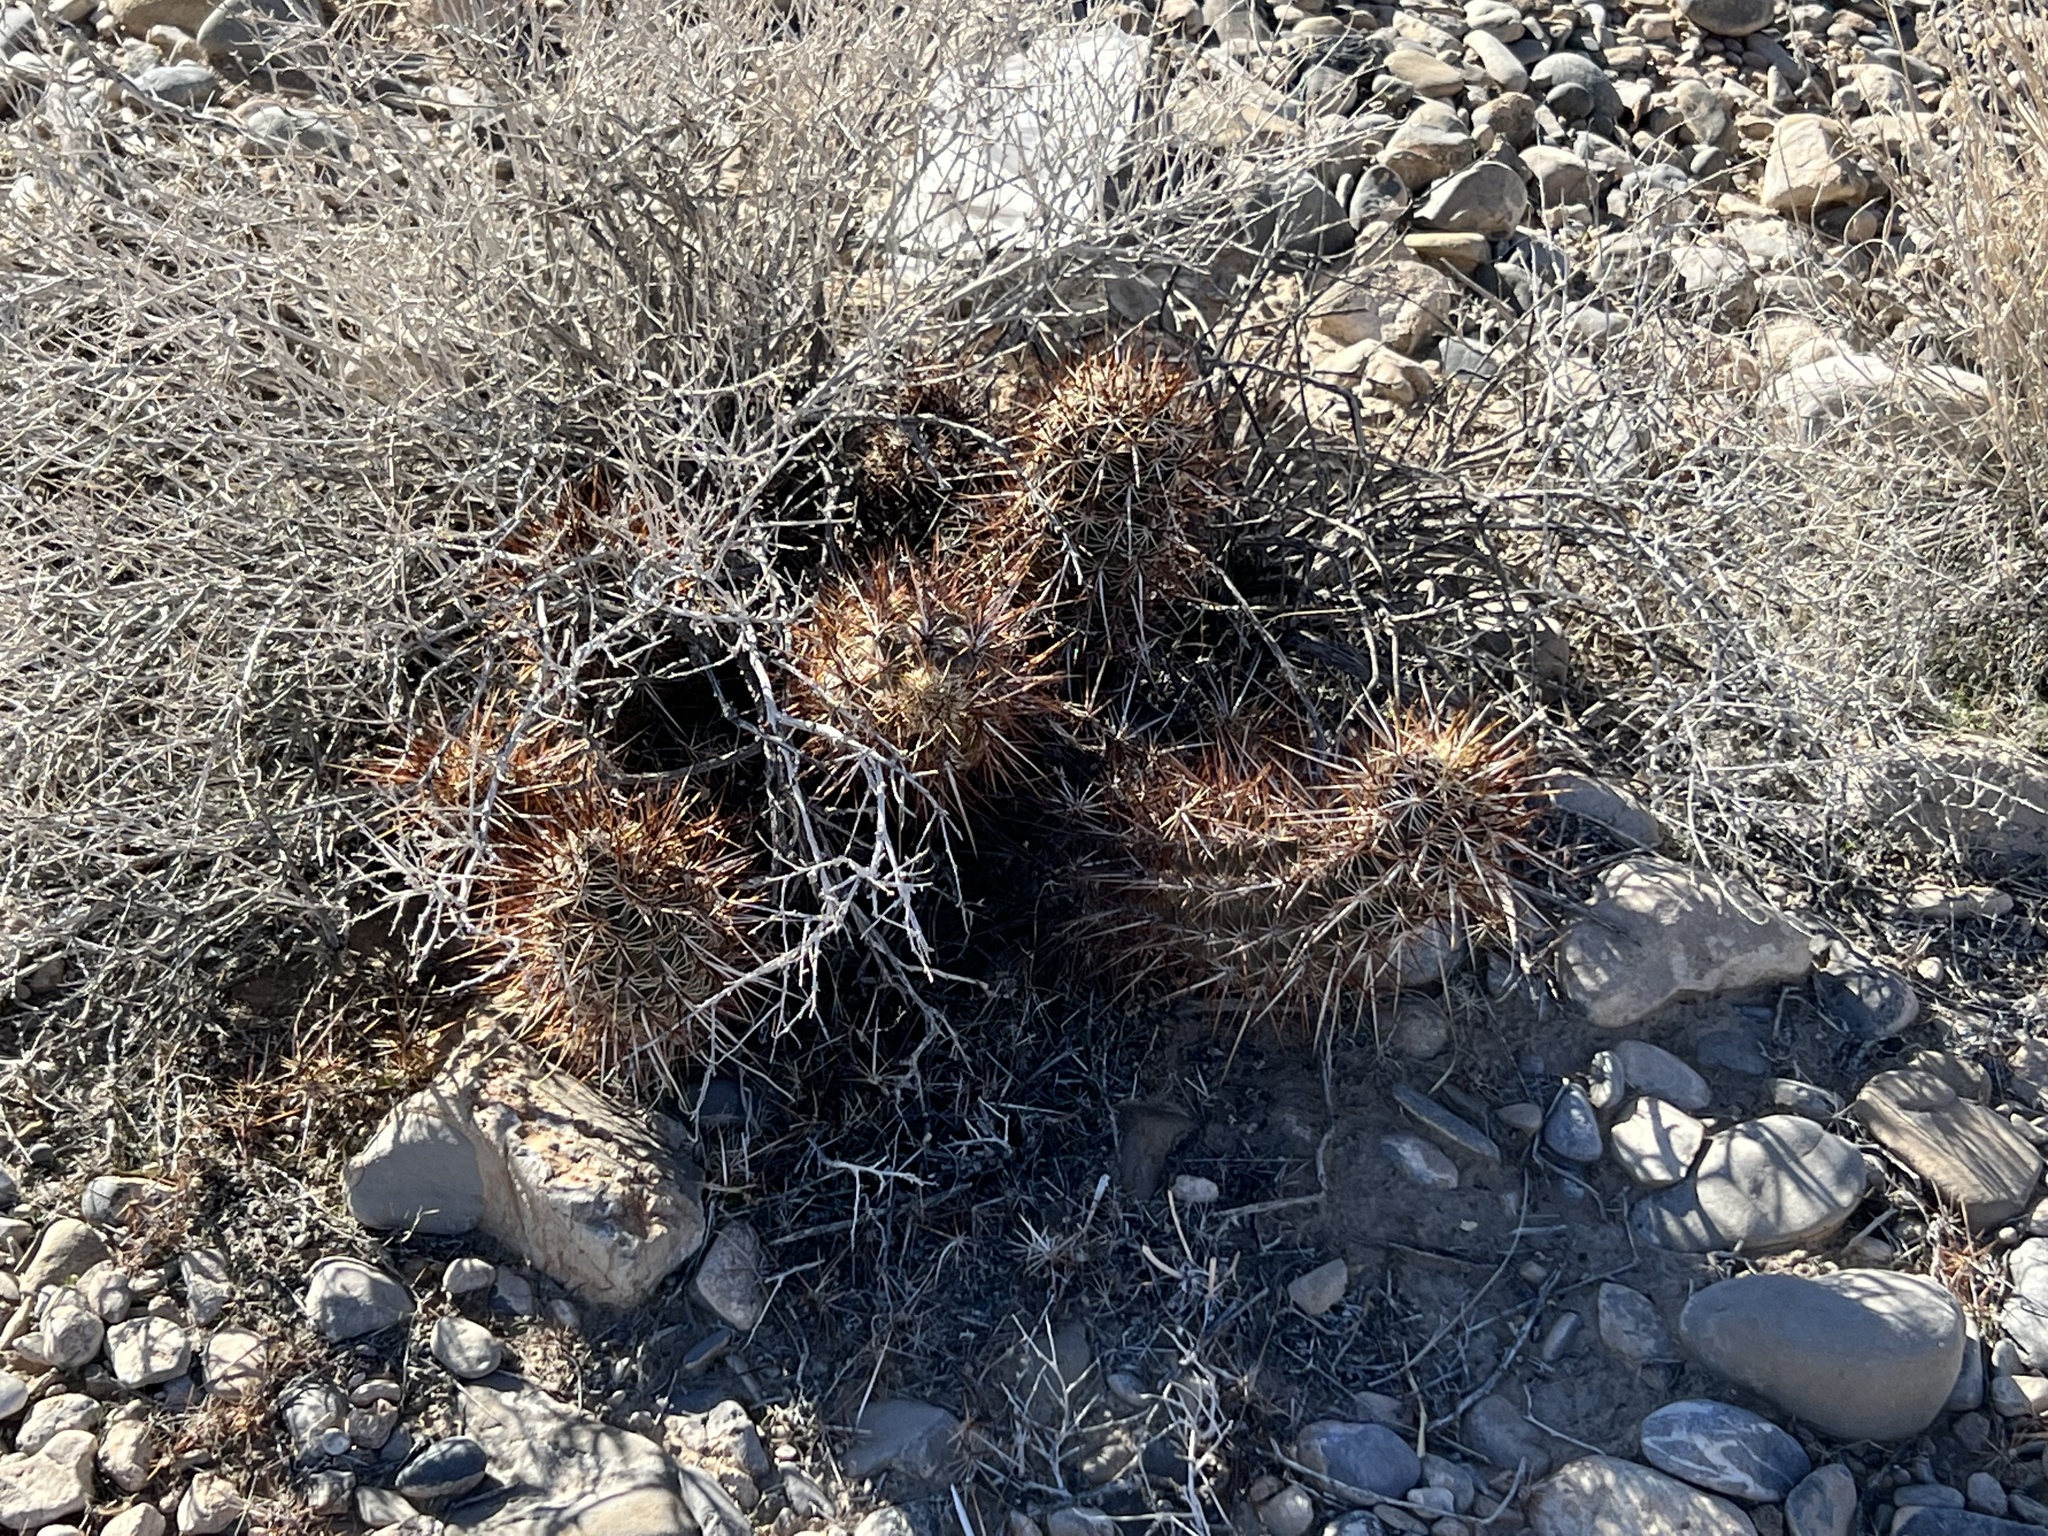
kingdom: Plantae
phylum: Tracheophyta
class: Magnoliopsida
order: Caryophyllales
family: Cactaceae
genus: Echinocereus
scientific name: Echinocereus engelmannii
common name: Engelmann's hedgehog cactus
